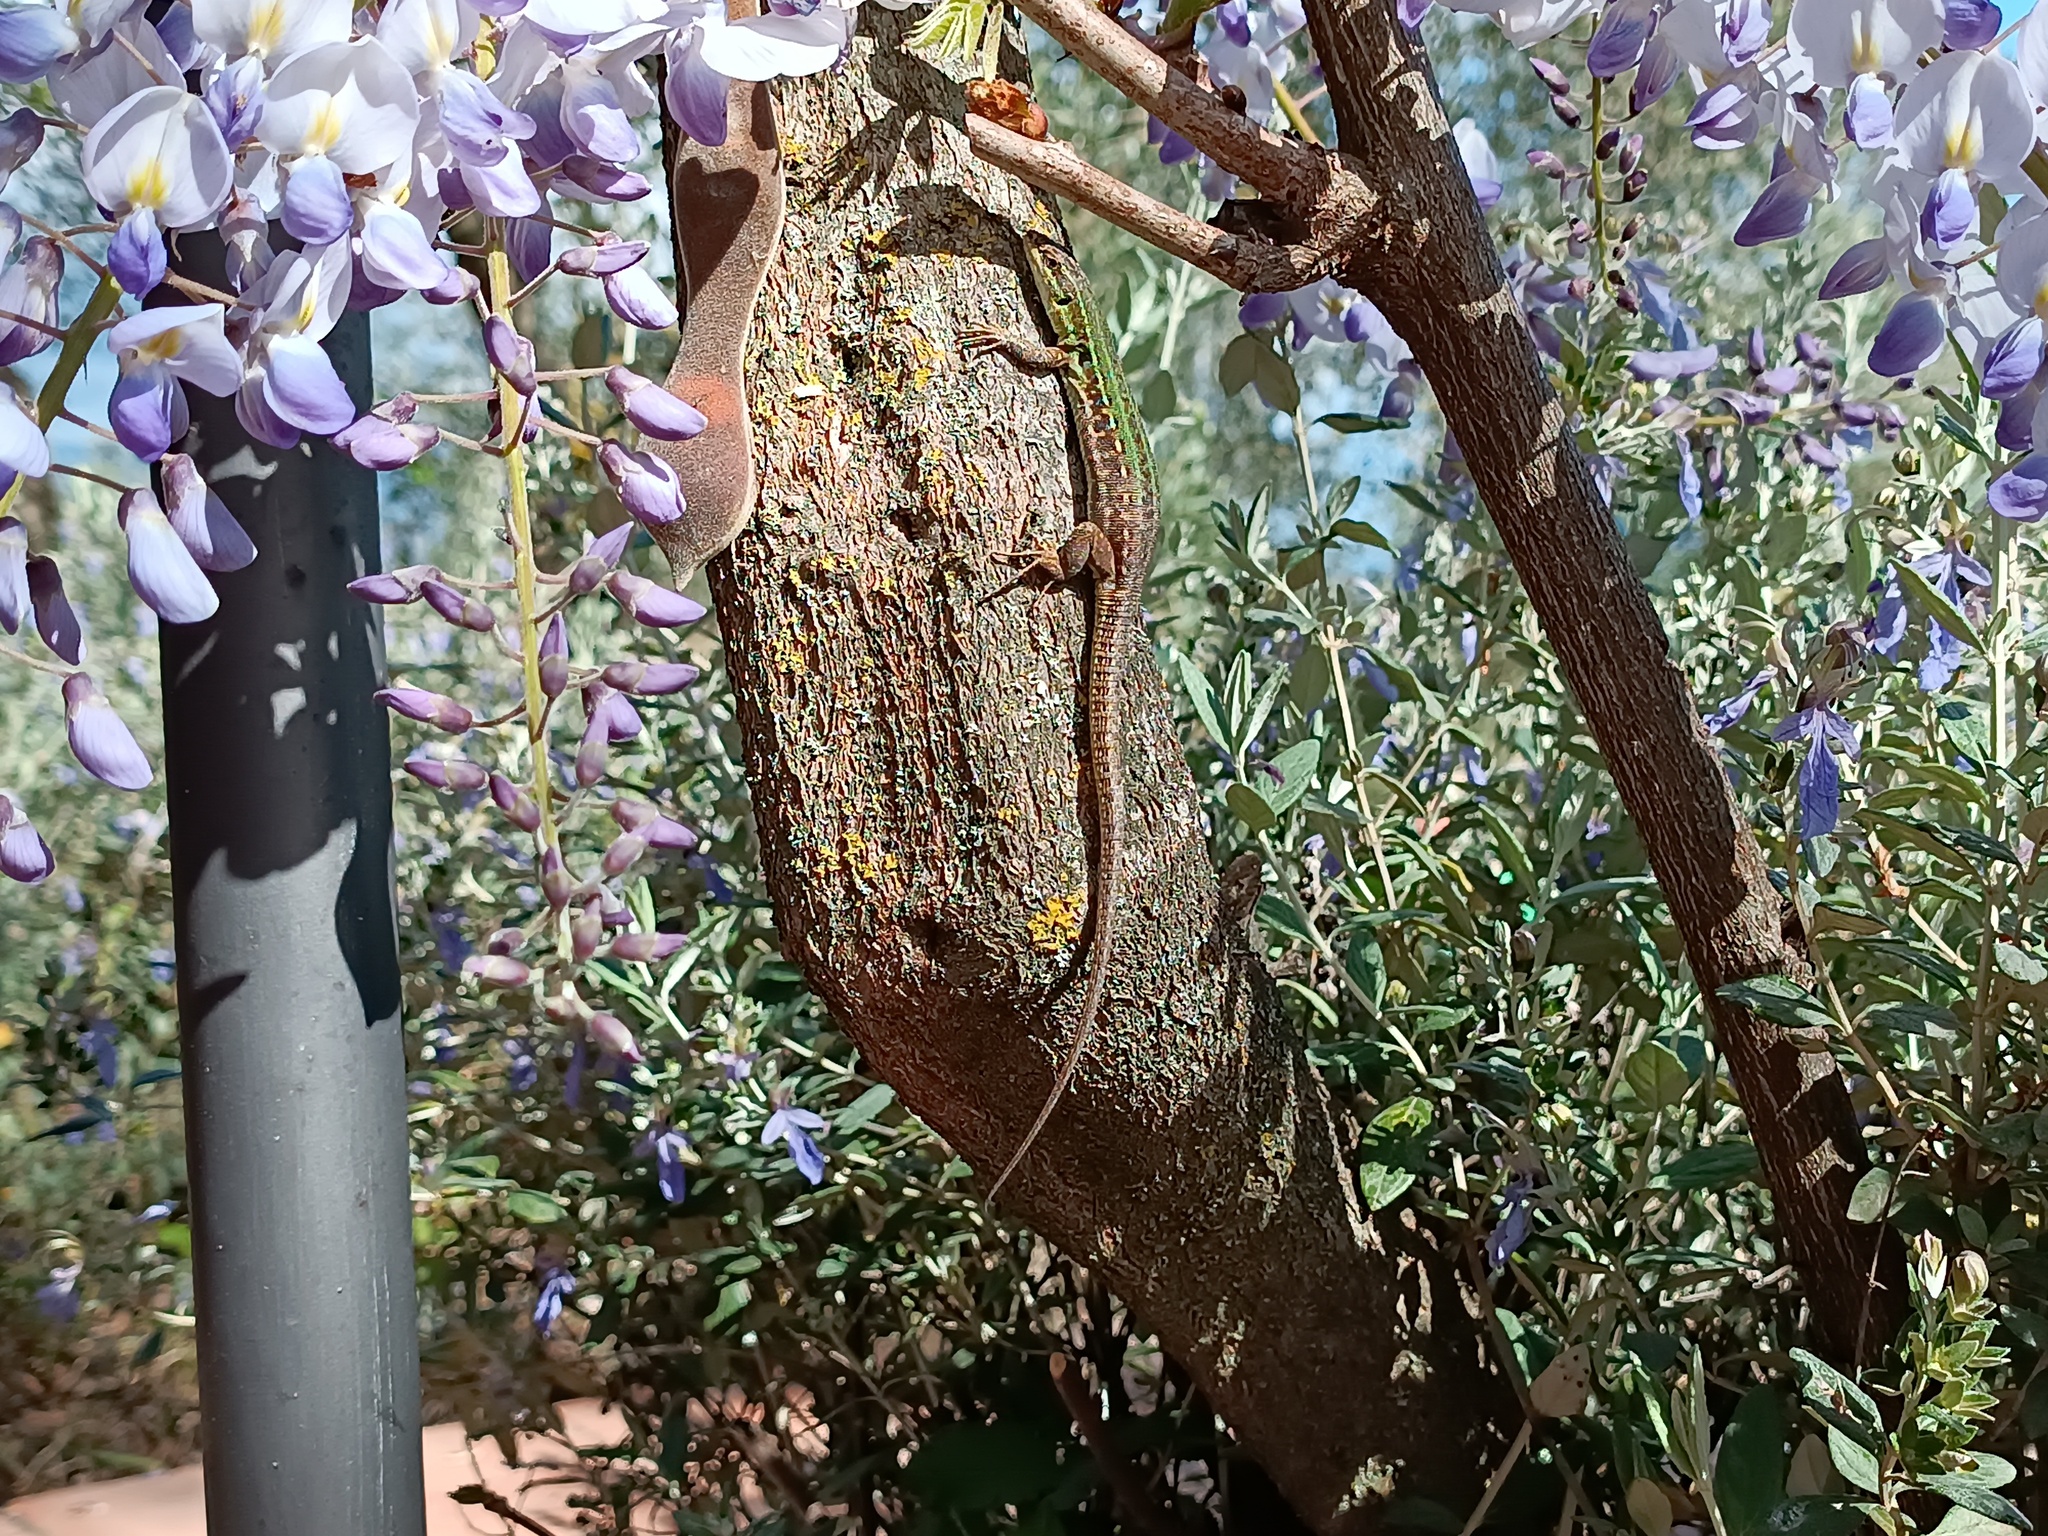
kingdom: Animalia
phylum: Chordata
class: Squamata
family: Lacertidae
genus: Podarcis
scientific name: Podarcis siculus
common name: Italian wall lizard
